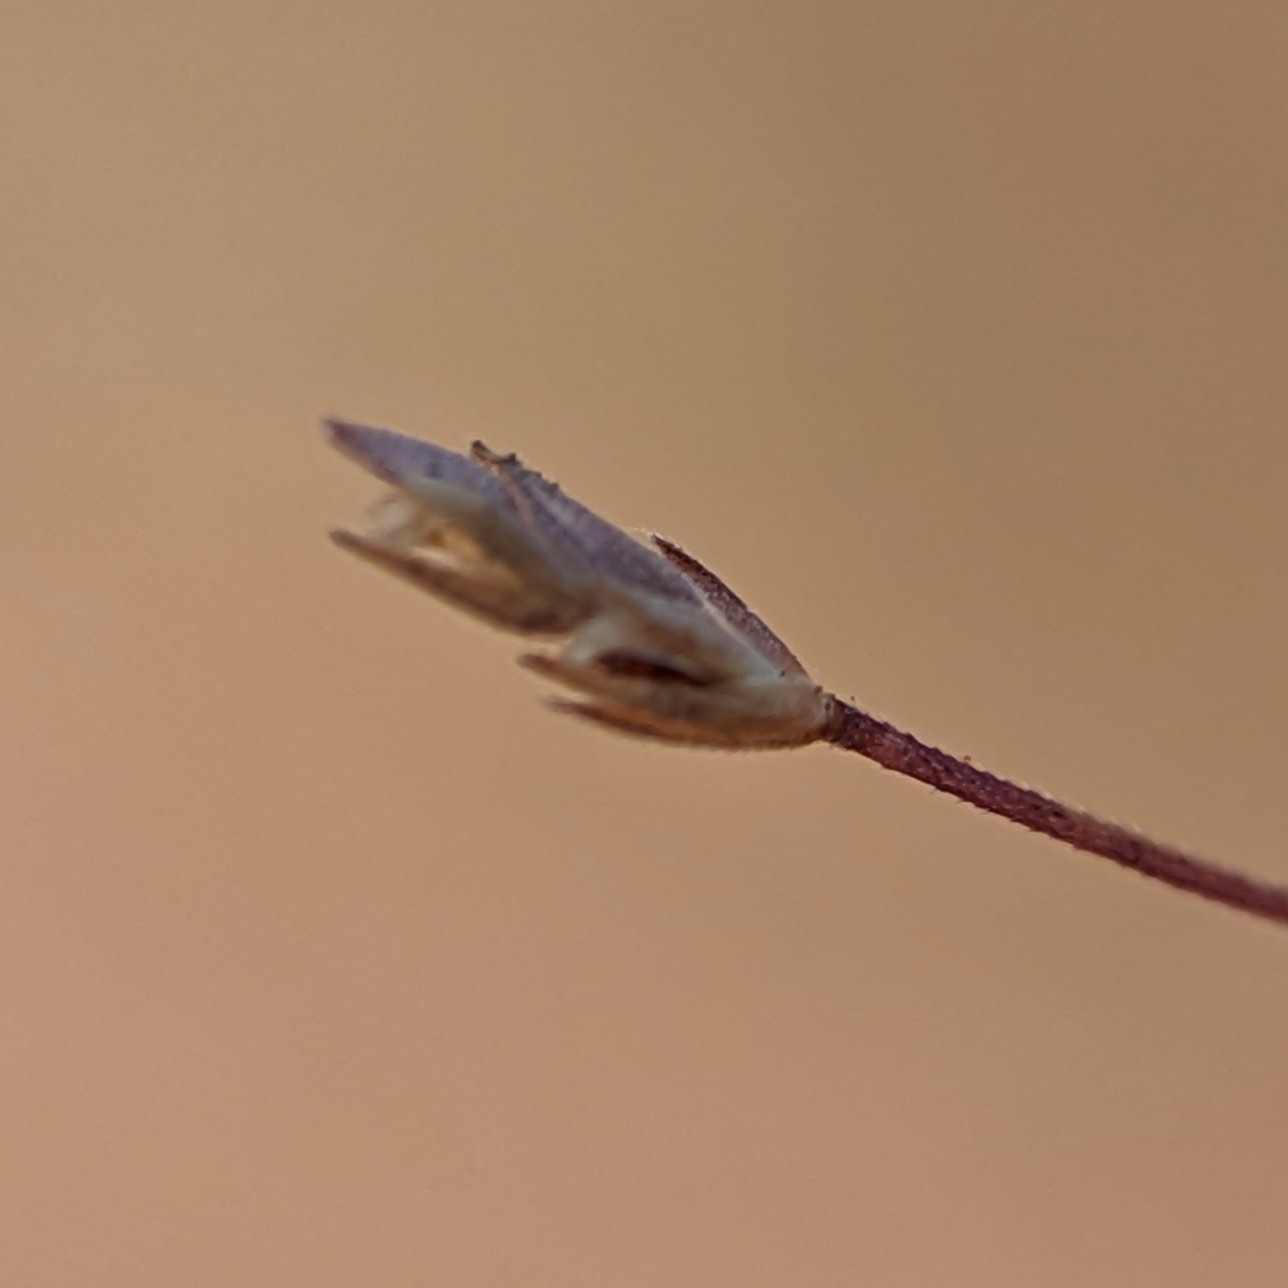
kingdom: Plantae
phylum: Tracheophyta
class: Liliopsida
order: Poales
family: Poaceae
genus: Eragrostis
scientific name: Eragrostis spectabilis
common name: Petticoat-climber
